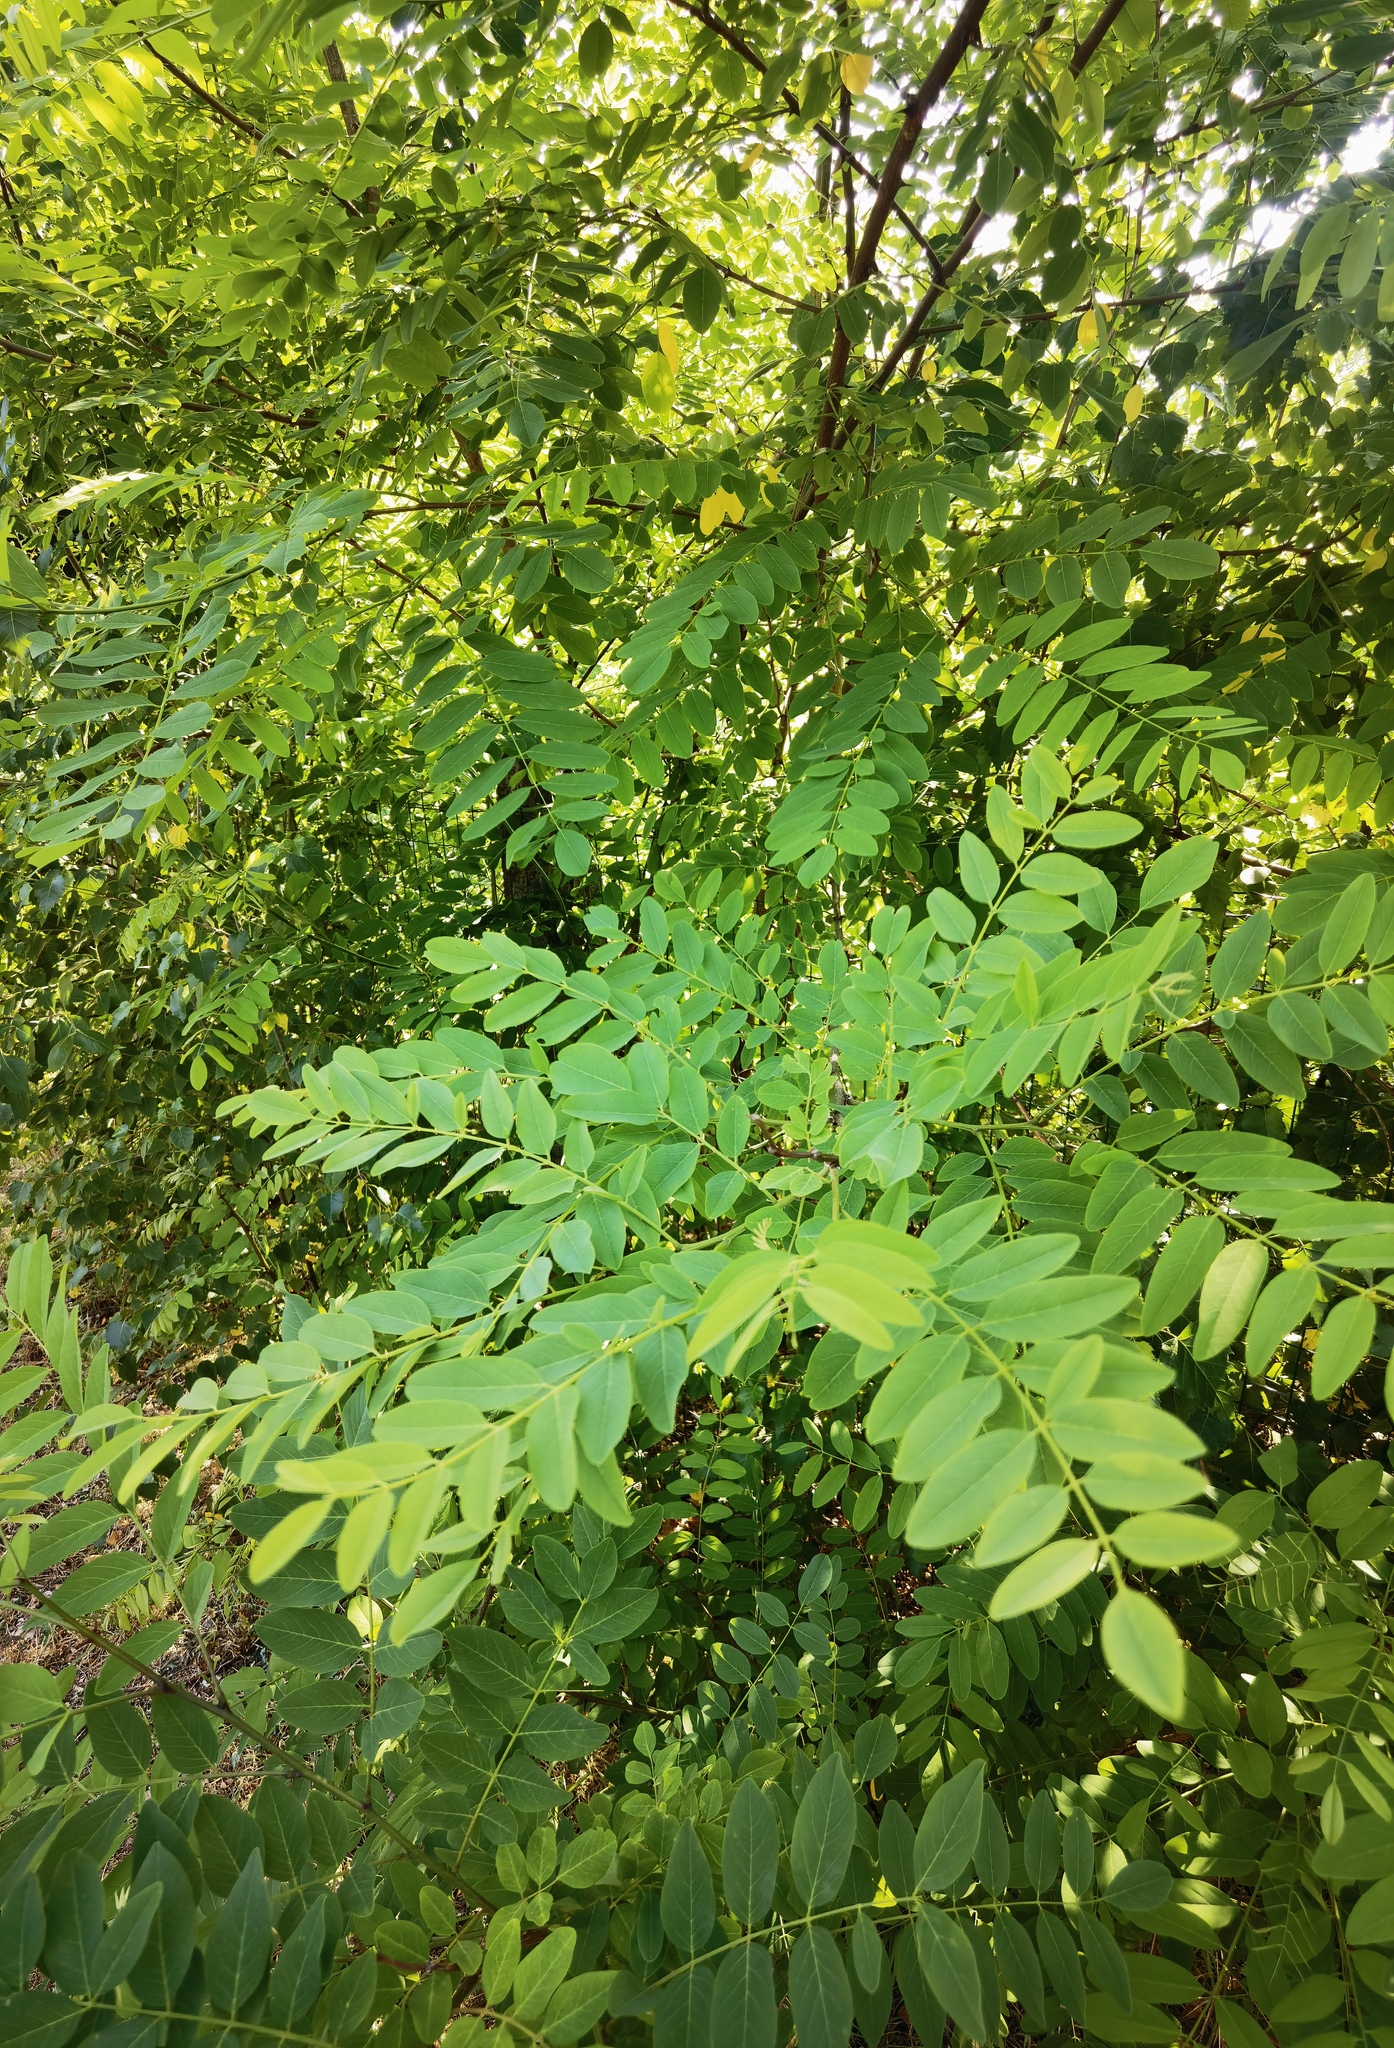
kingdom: Plantae
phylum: Tracheophyta
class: Magnoliopsida
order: Fabales
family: Fabaceae
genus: Robinia
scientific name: Robinia pseudoacacia
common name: Black locust
